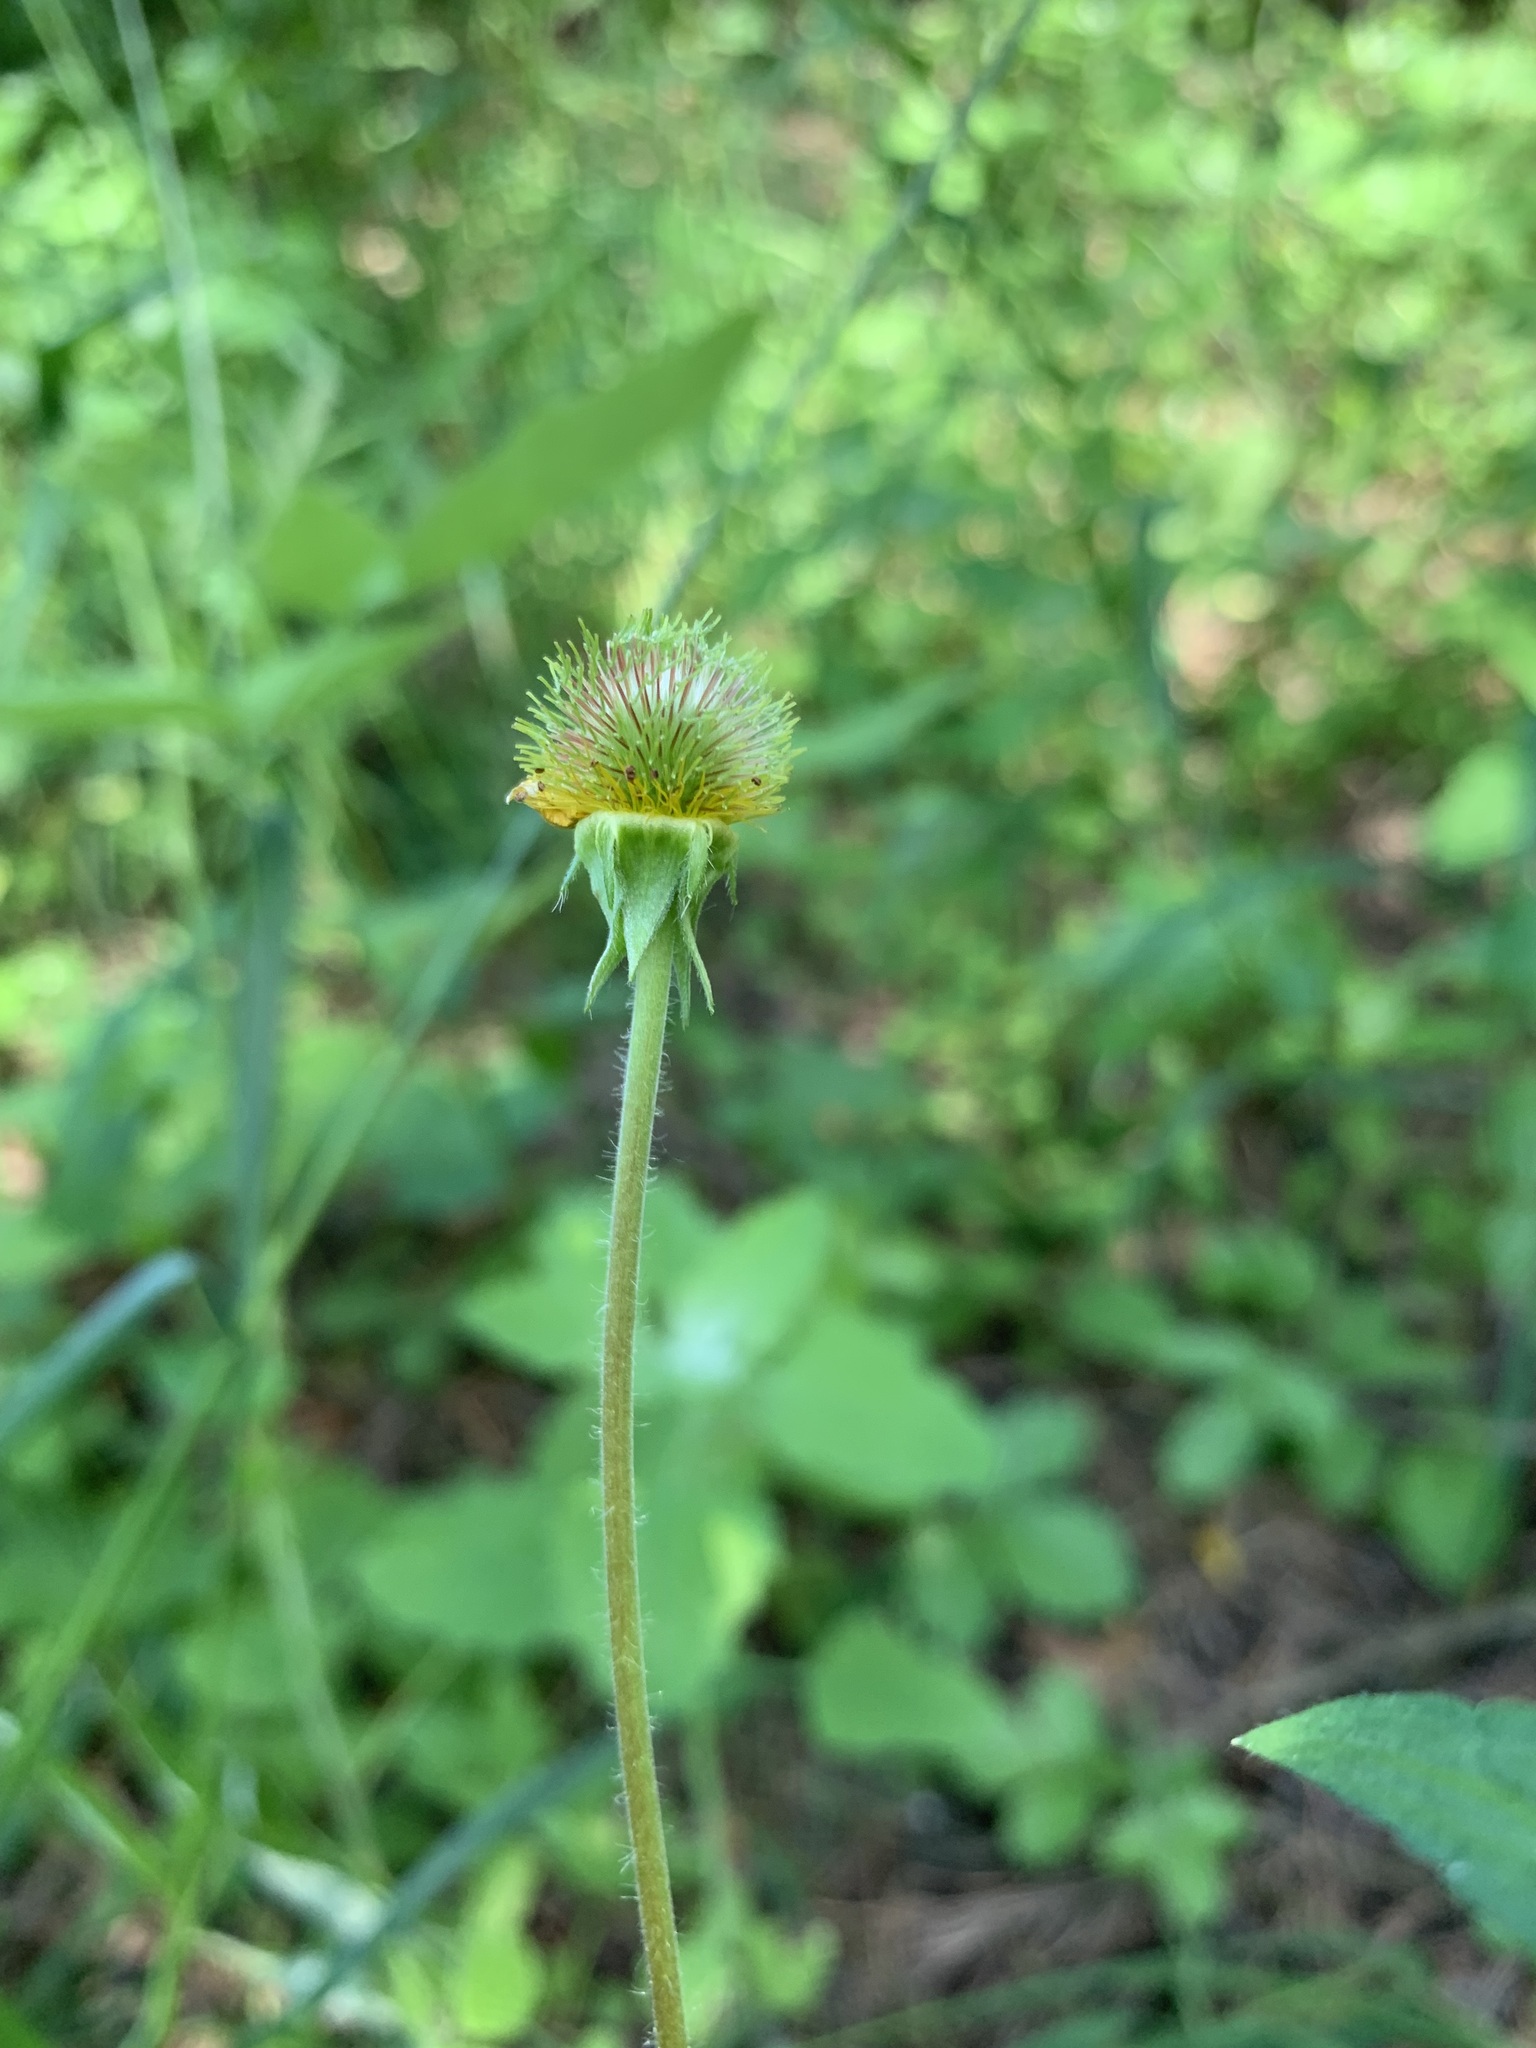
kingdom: Plantae
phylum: Tracheophyta
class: Magnoliopsida
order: Rosales
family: Rosaceae
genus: Geum
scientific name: Geum aleppicum
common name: Yellow avens
